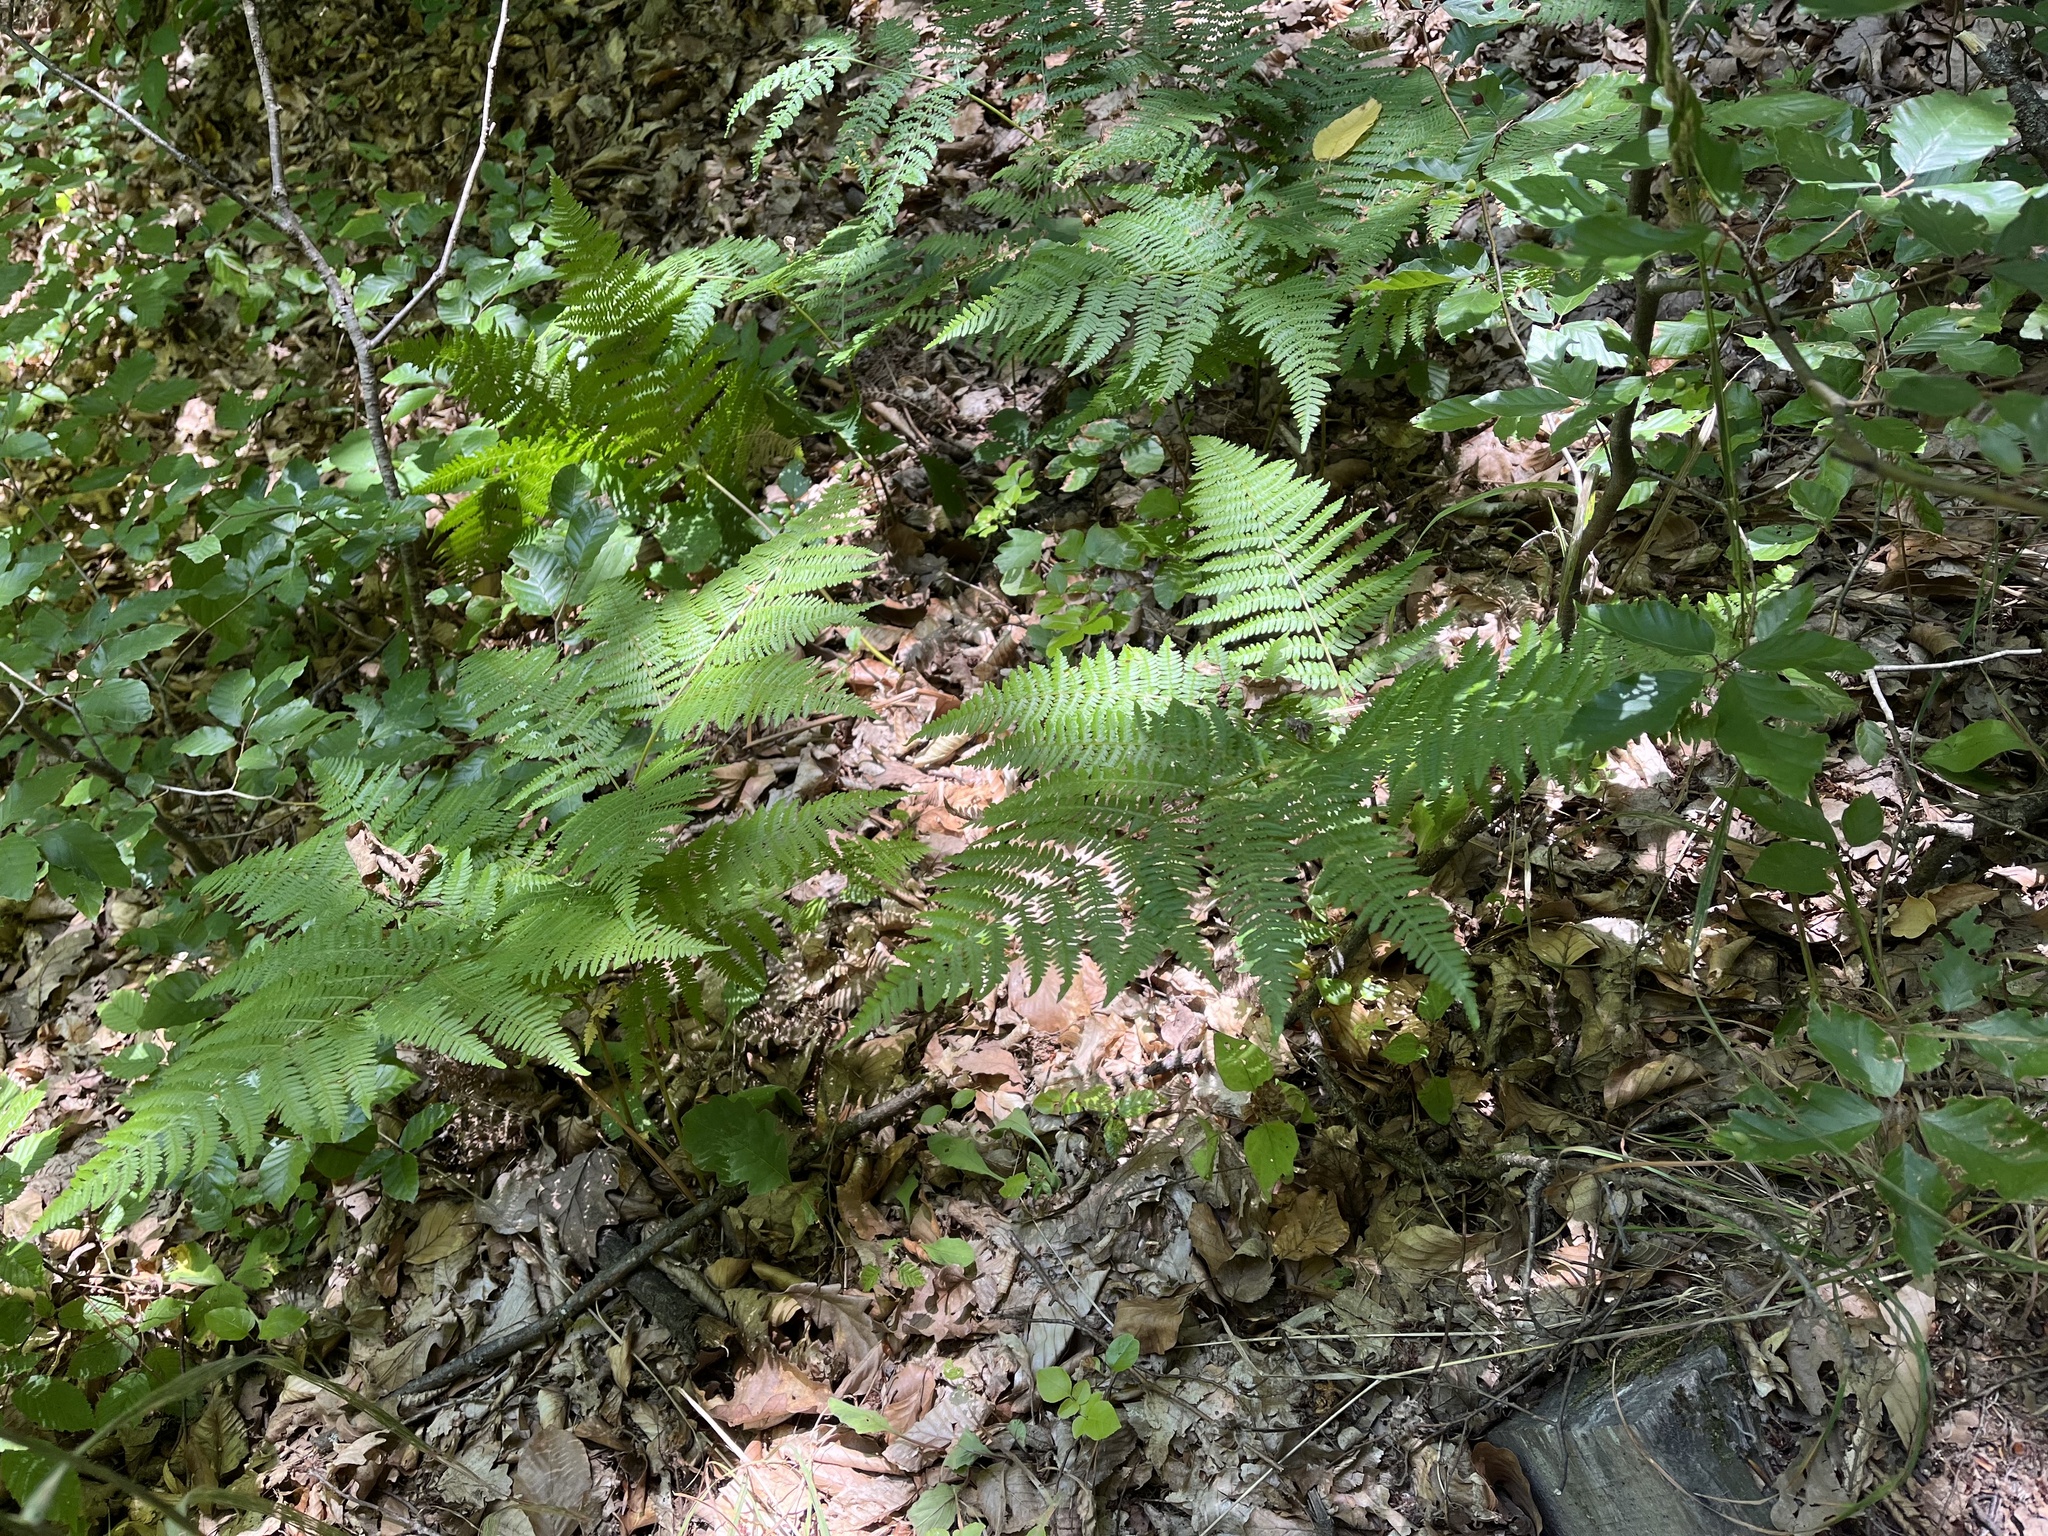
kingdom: Plantae
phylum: Tracheophyta
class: Polypodiopsida
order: Polypodiales
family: Dennstaedtiaceae
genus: Pteridium
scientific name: Pteridium aquilinum
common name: Bracken
